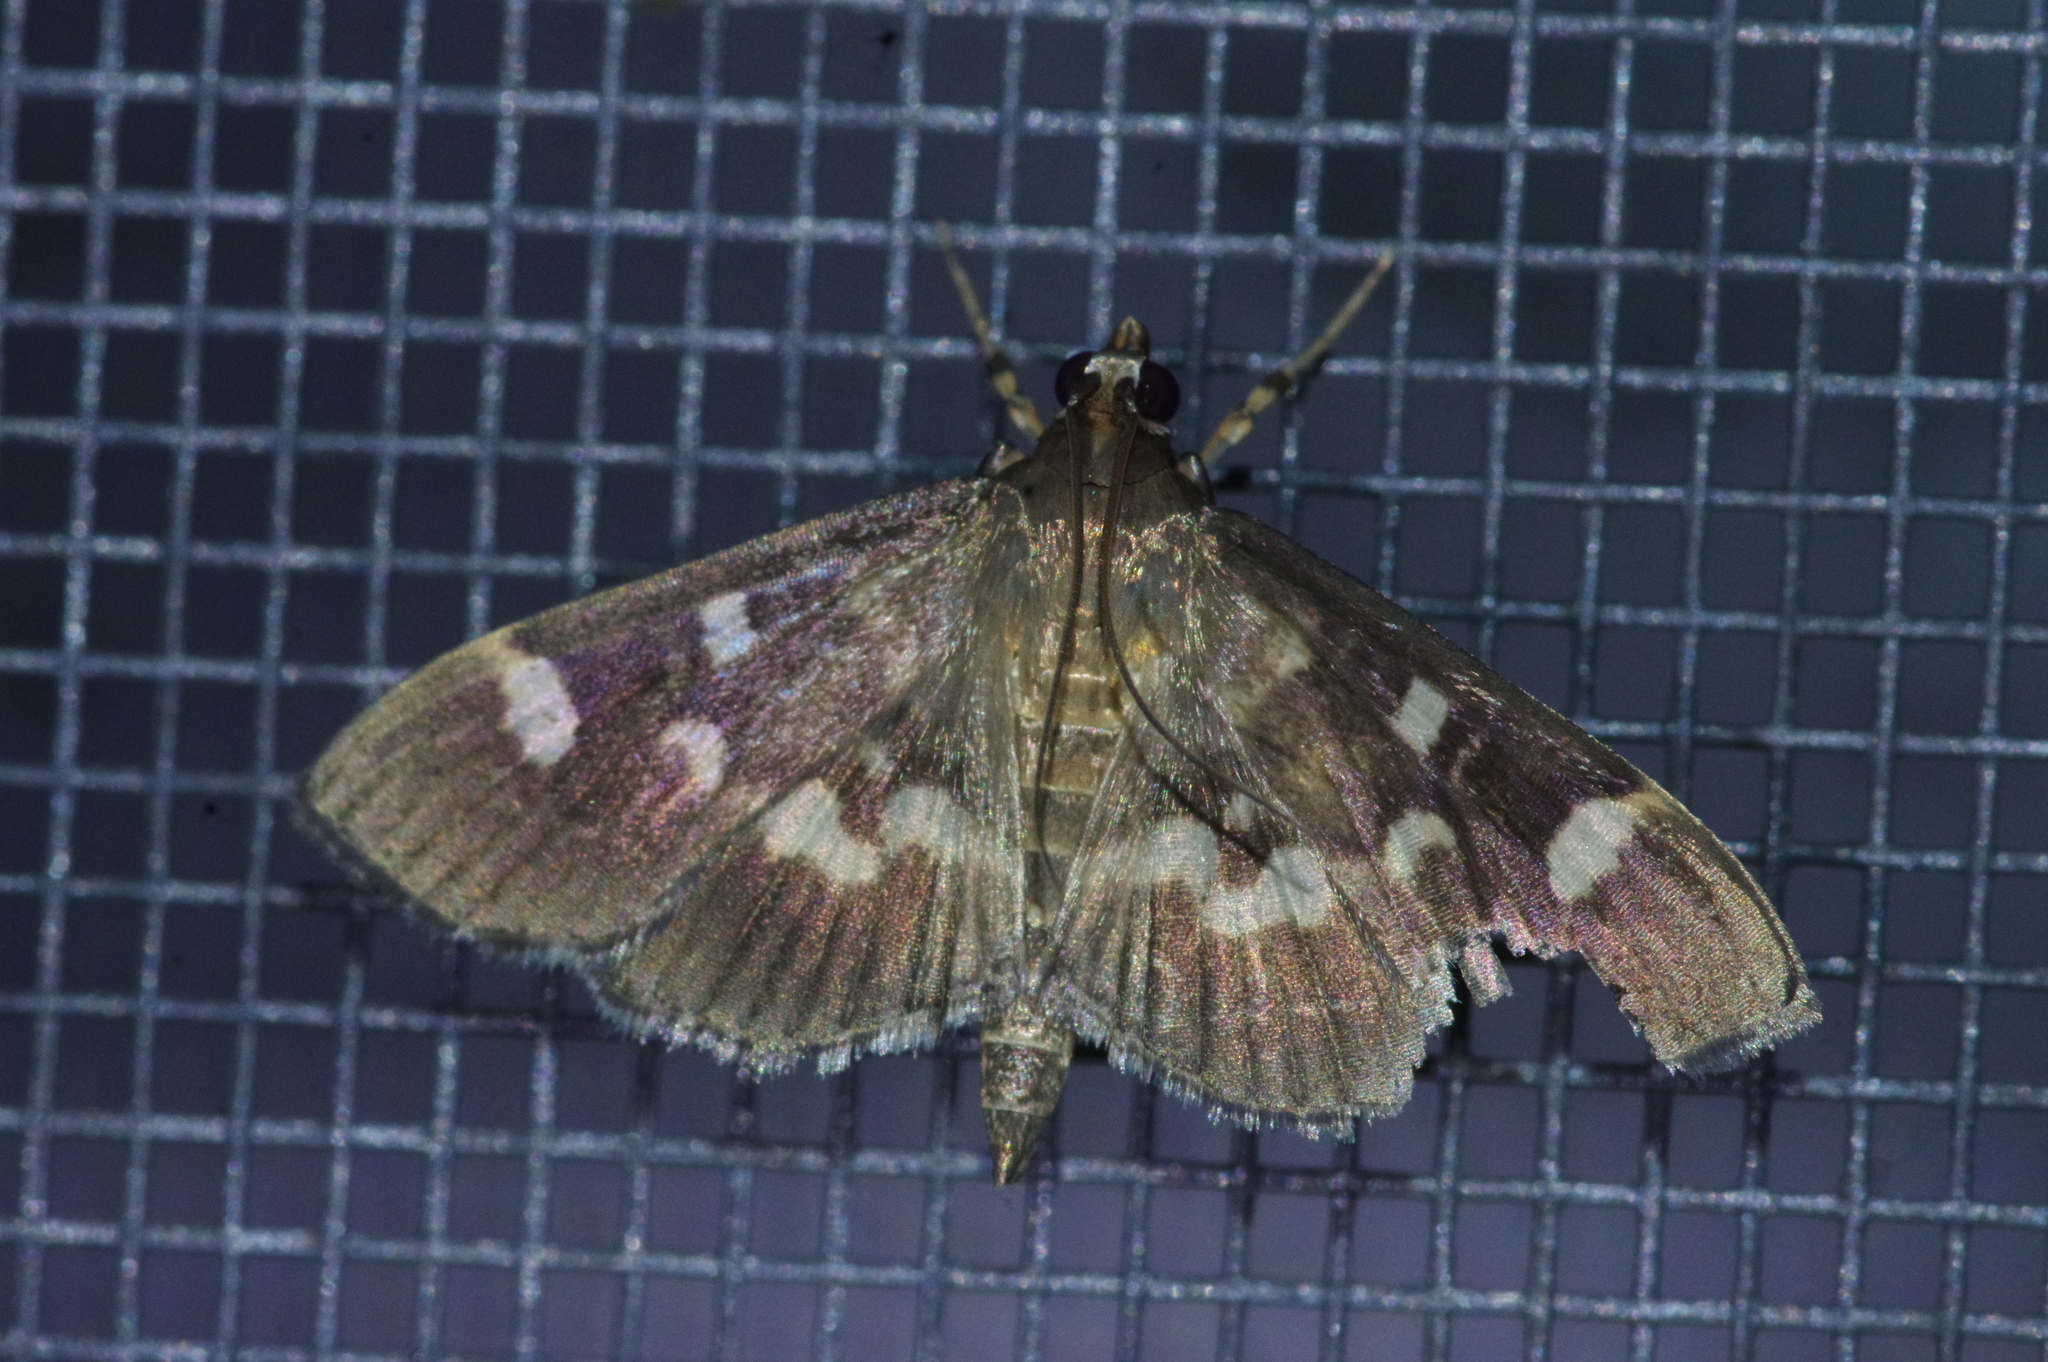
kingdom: Animalia
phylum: Arthropoda
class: Insecta
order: Lepidoptera
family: Crambidae
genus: Herpetogramma
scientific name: Herpetogramma luctuosalis
